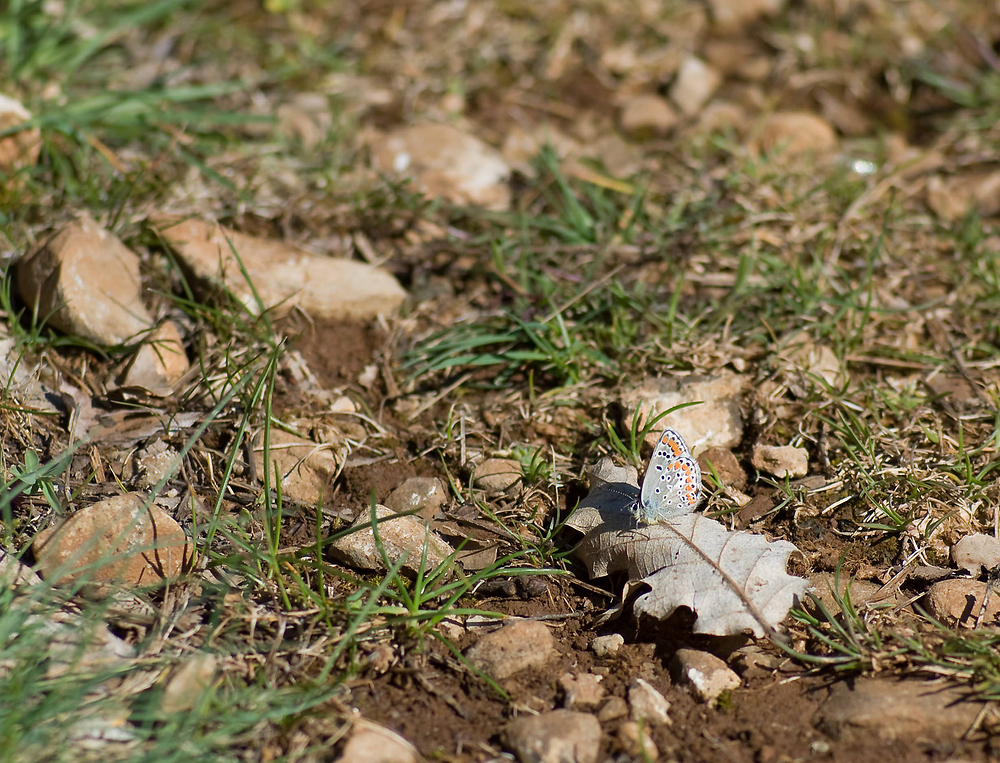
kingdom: Animalia
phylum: Arthropoda
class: Insecta
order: Lepidoptera
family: Lycaenidae
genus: Aricia
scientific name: Aricia agestis
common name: Brown argus
